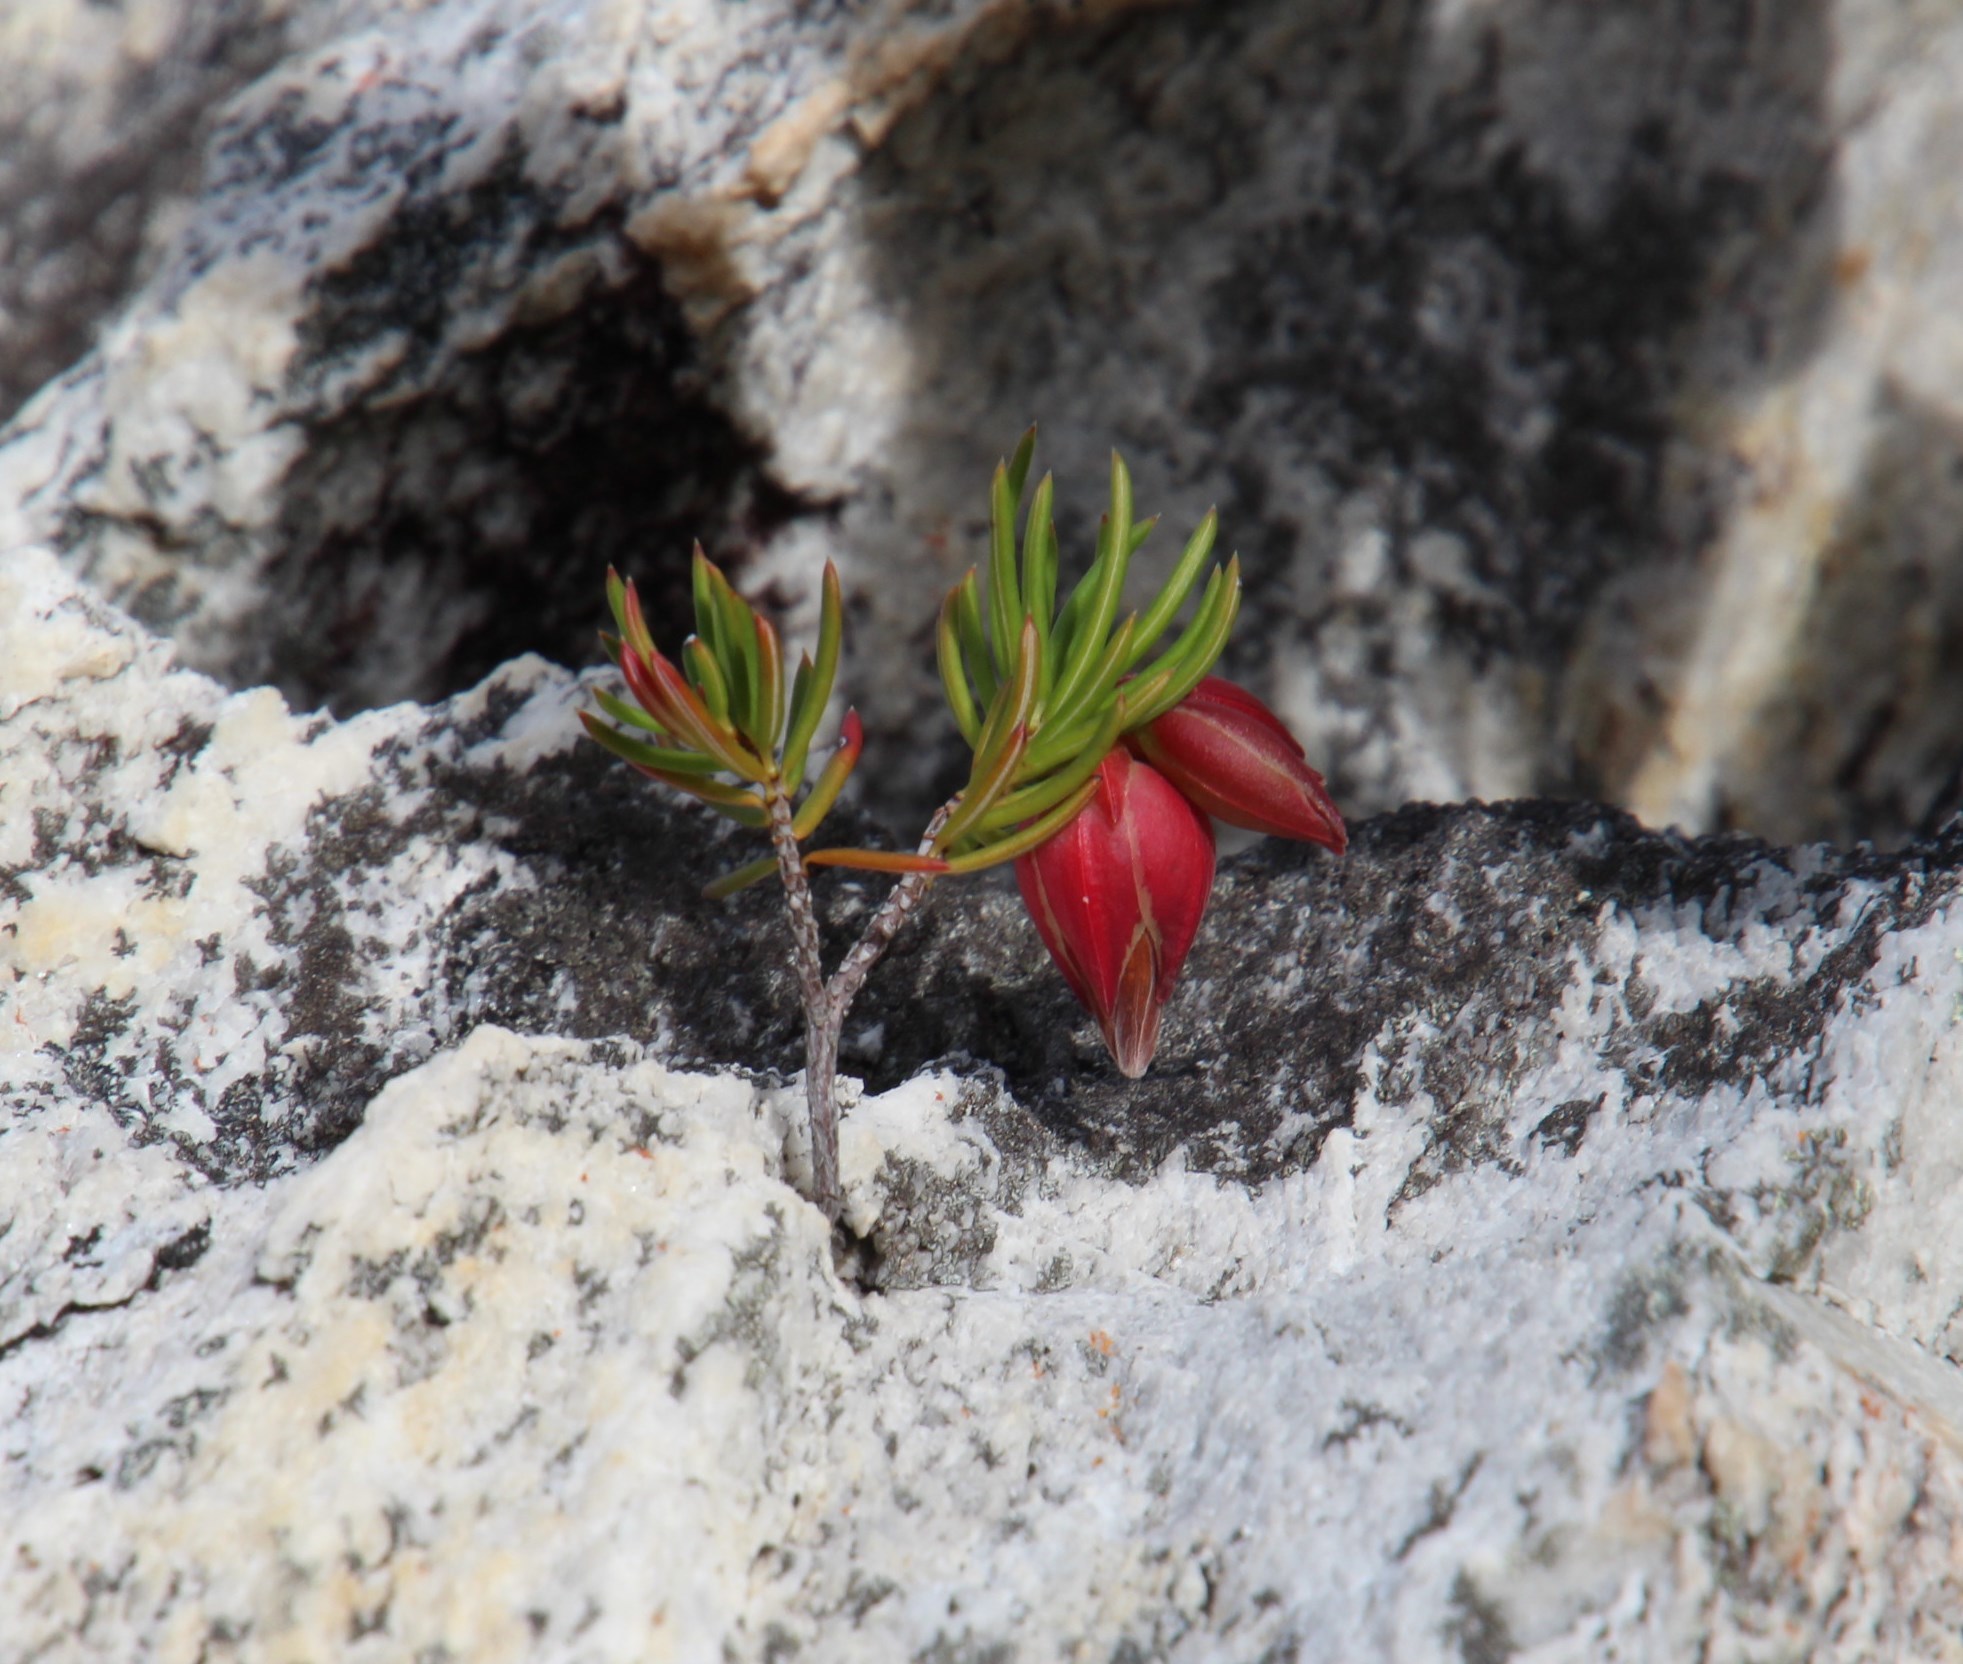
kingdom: Plantae
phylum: Tracheophyta
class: Magnoliopsida
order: Ericales
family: Ericaceae
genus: Erica
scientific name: Erica lanuginosa
